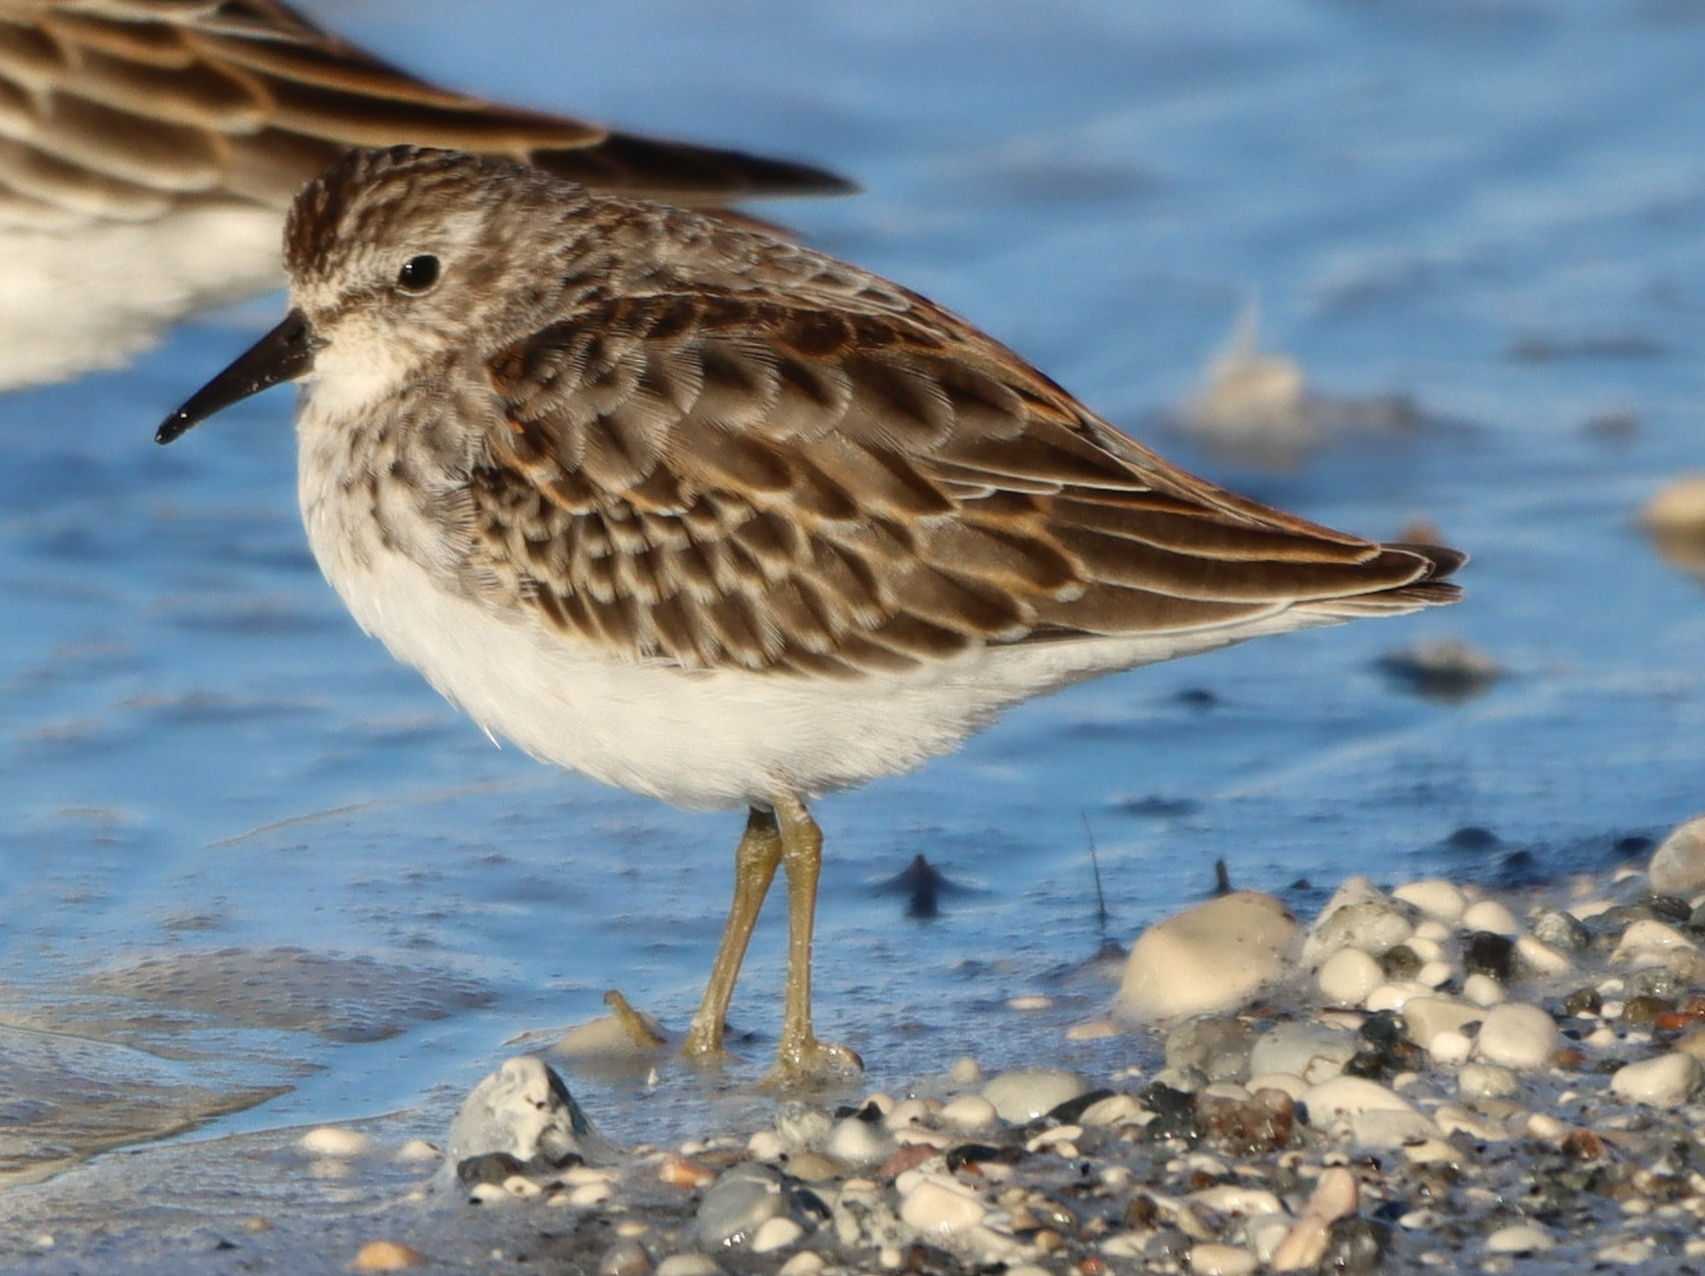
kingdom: Animalia
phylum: Chordata
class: Aves
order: Charadriiformes
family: Scolopacidae
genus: Calidris
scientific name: Calidris minutilla
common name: Least sandpiper
